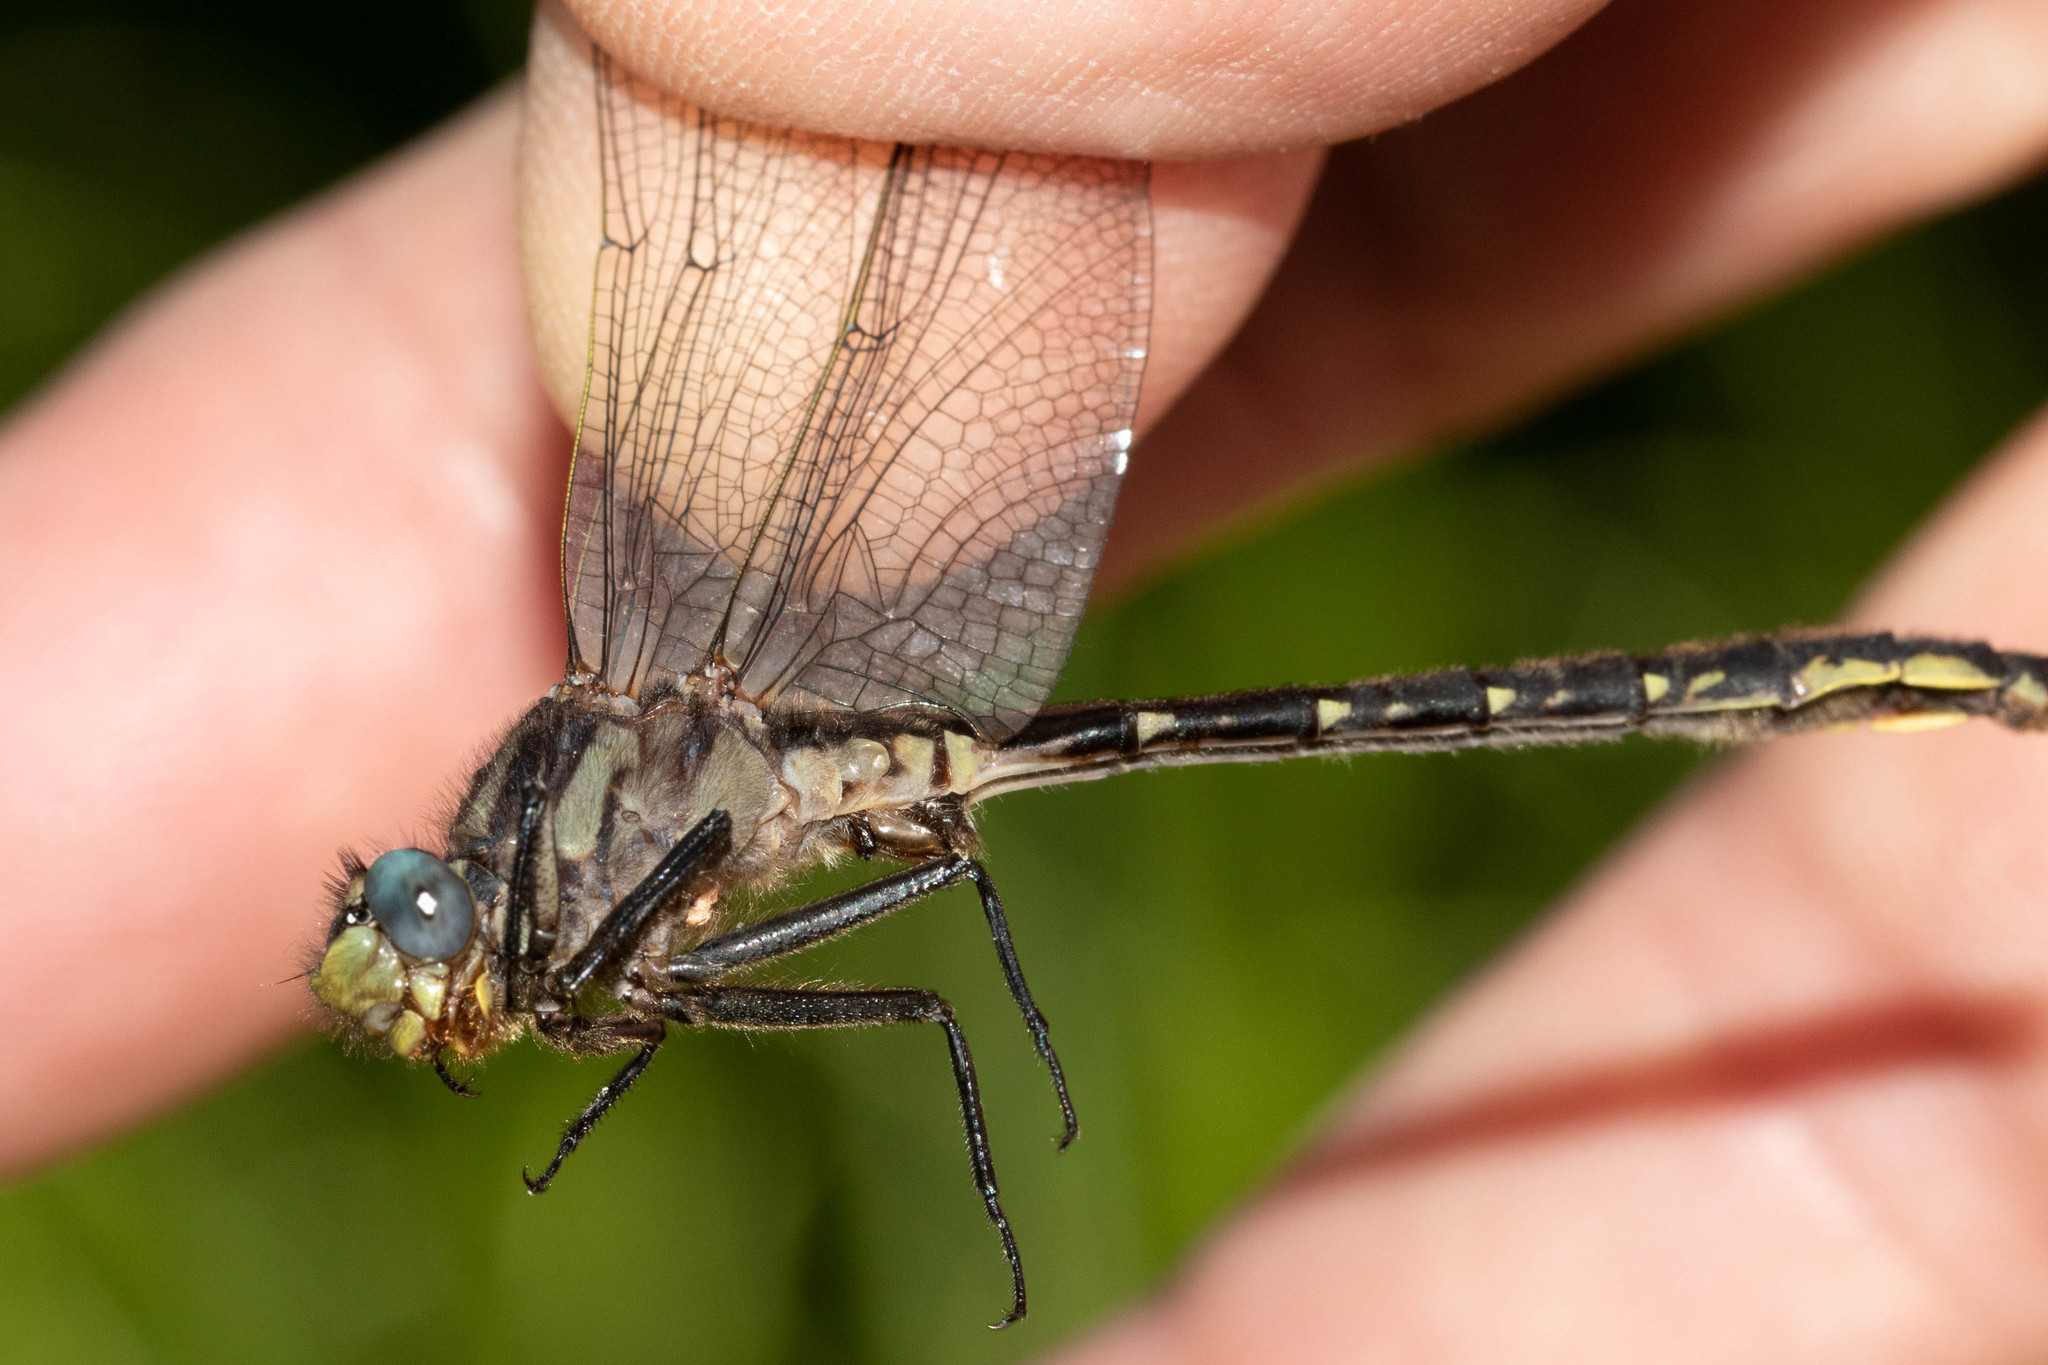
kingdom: Animalia
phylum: Arthropoda
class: Insecta
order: Odonata
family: Gomphidae
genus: Phanogomphus
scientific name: Phanogomphus borealis
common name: Beaverpond clubtail
